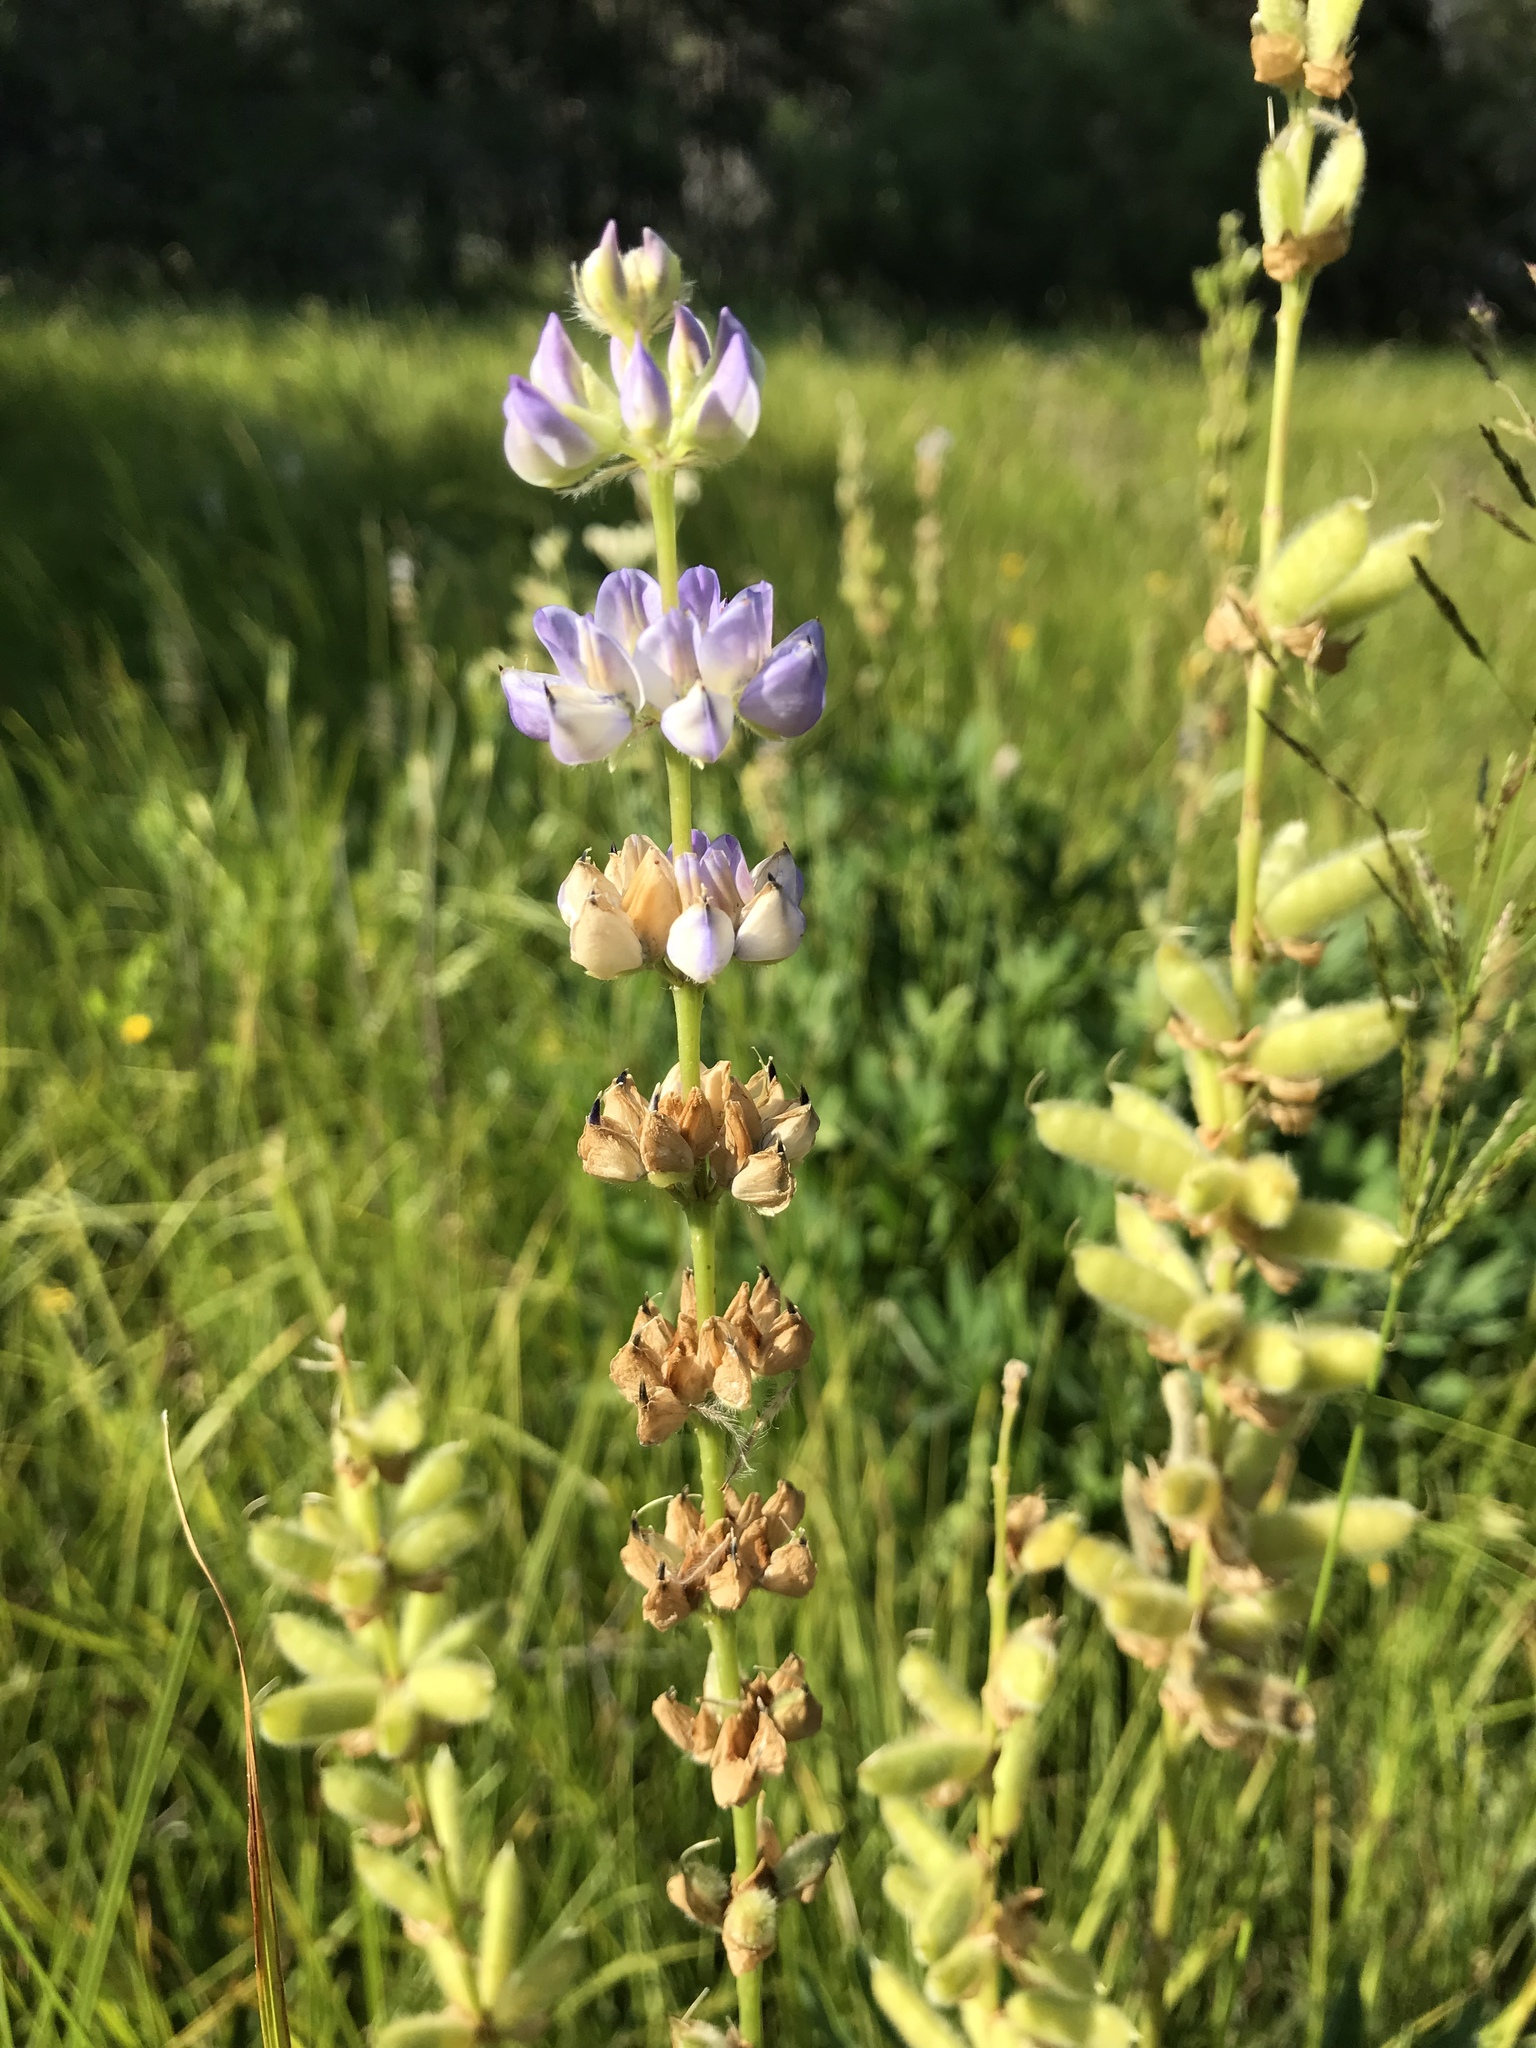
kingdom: Plantae
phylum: Tracheophyta
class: Magnoliopsida
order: Fabales
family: Fabaceae
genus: Lupinus
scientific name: Lupinus polyphyllus
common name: Garden lupin
